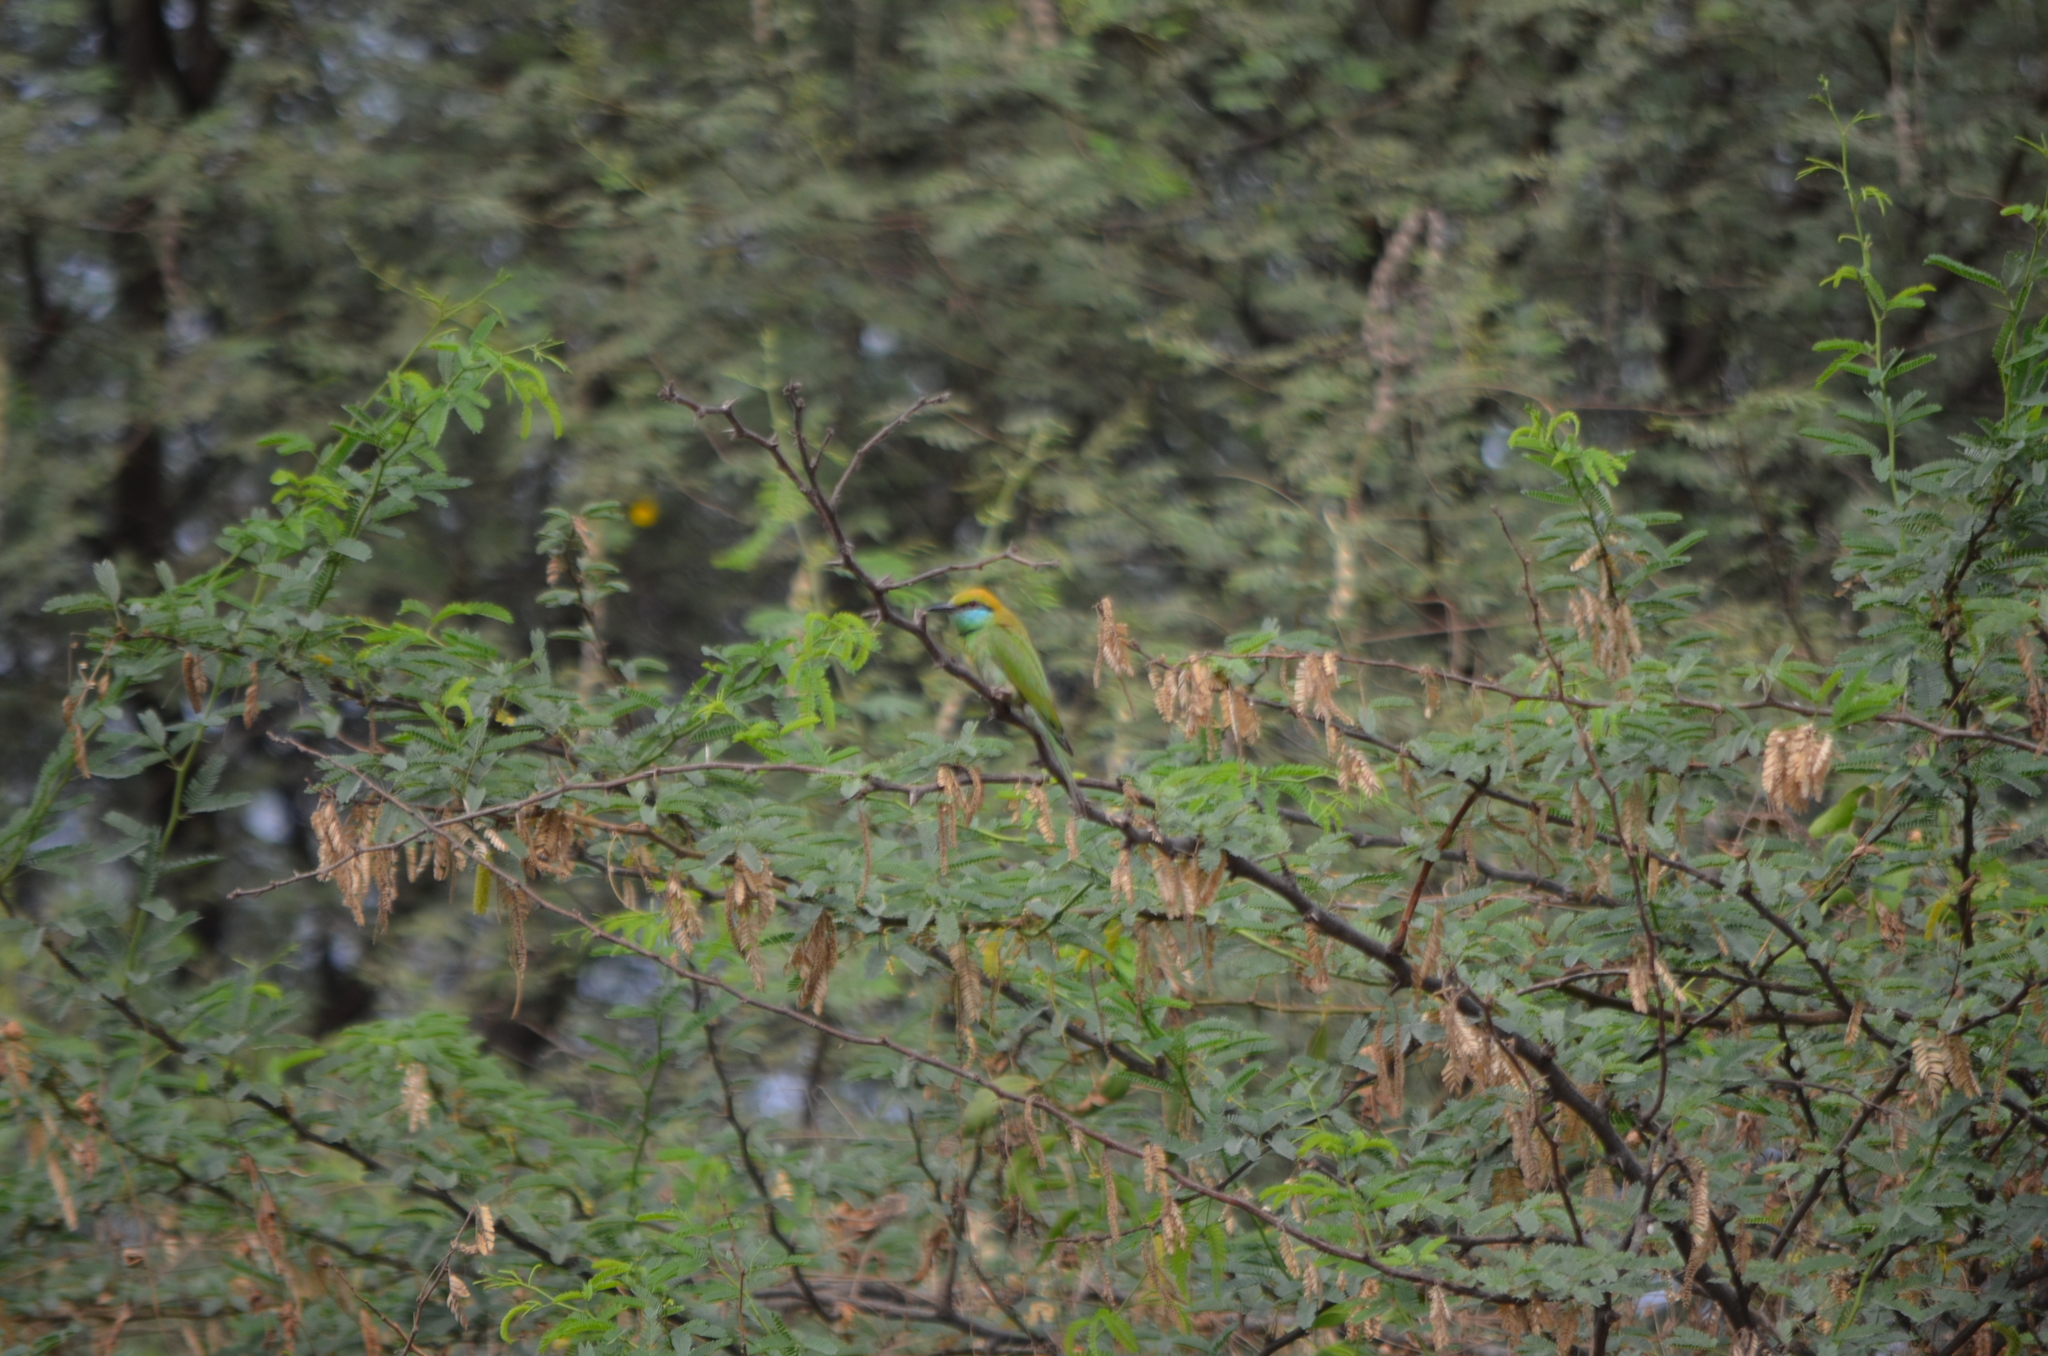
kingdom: Animalia
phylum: Chordata
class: Aves
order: Coraciiformes
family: Meropidae
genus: Merops
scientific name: Merops orientalis
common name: Green bee-eater
